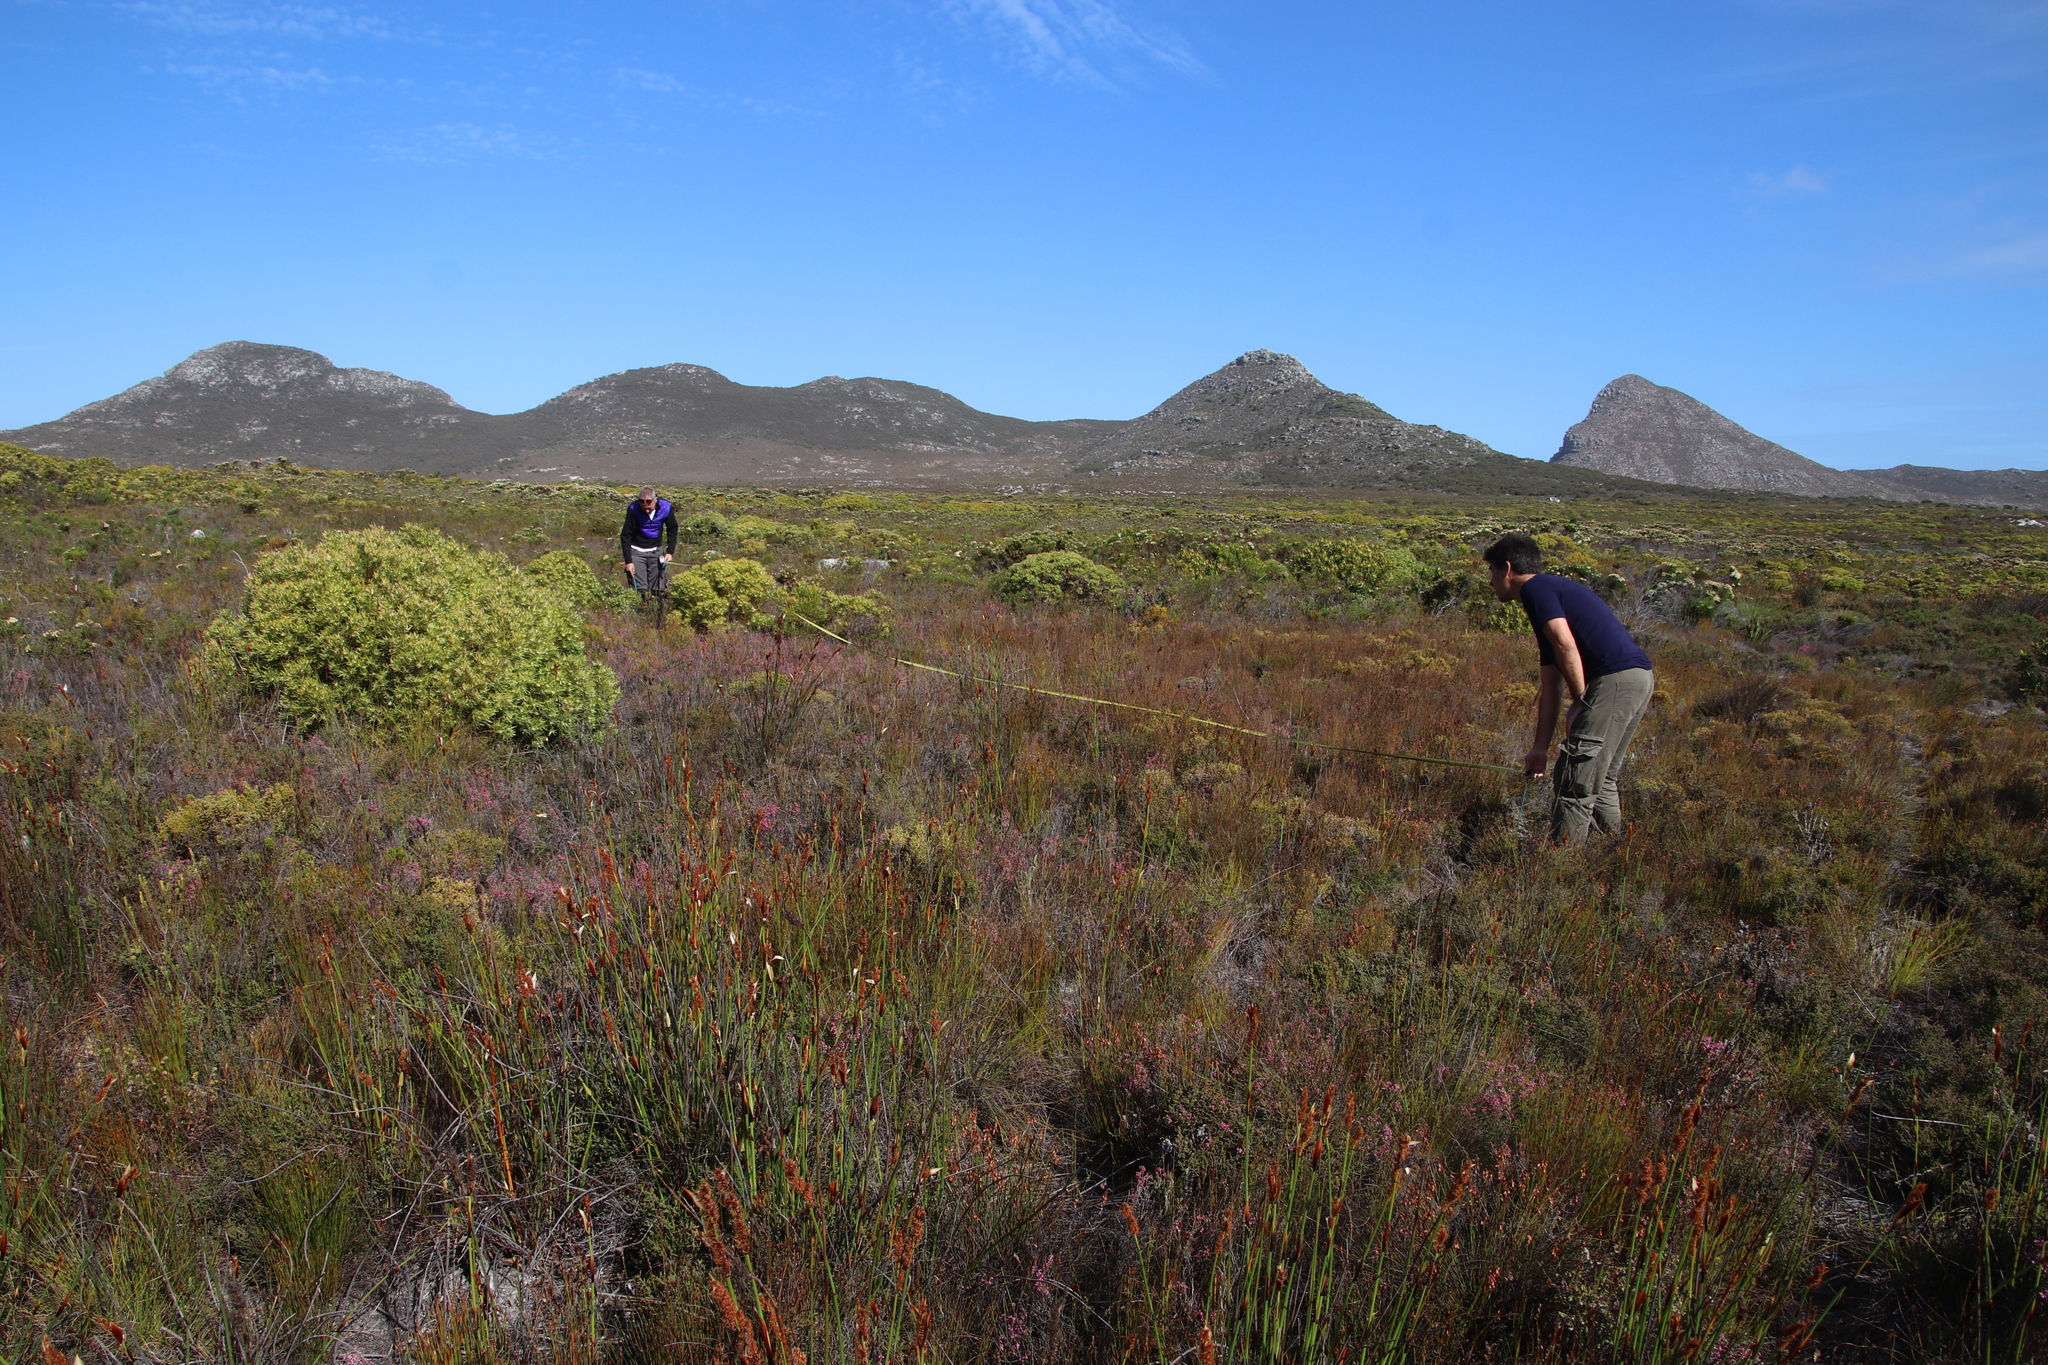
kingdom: Plantae
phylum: Tracheophyta
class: Magnoliopsida
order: Proteales
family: Proteaceae
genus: Leucadendron
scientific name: Leucadendron xanthoconus
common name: Sickle-leaf conebush
